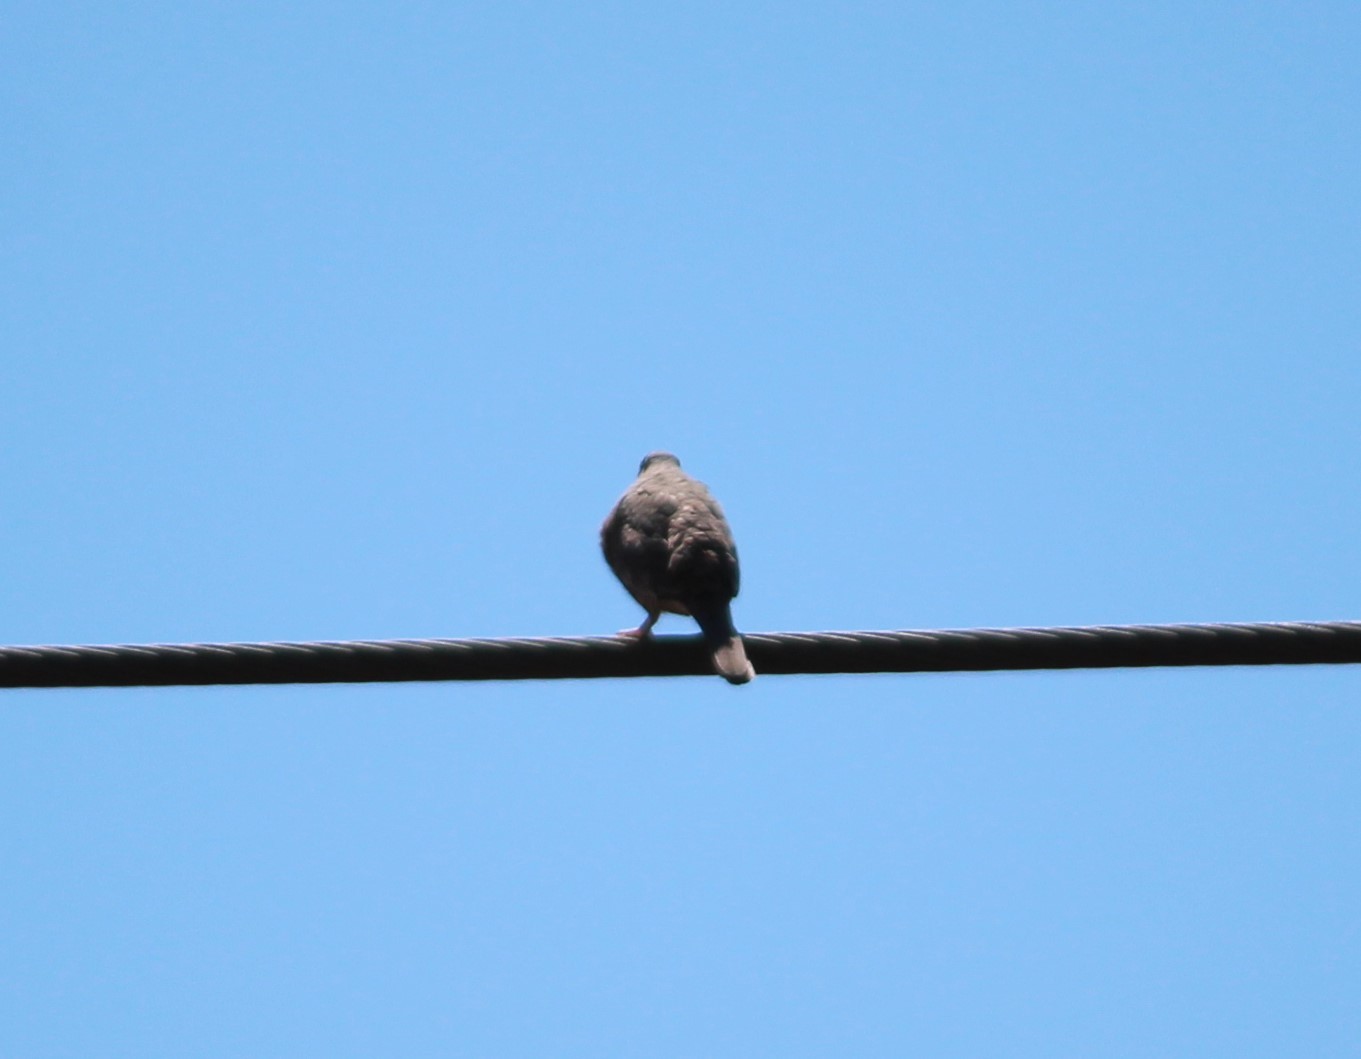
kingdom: Animalia
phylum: Chordata
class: Aves
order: Columbiformes
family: Columbidae
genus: Columbina
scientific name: Columbina inca
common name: Inca dove
